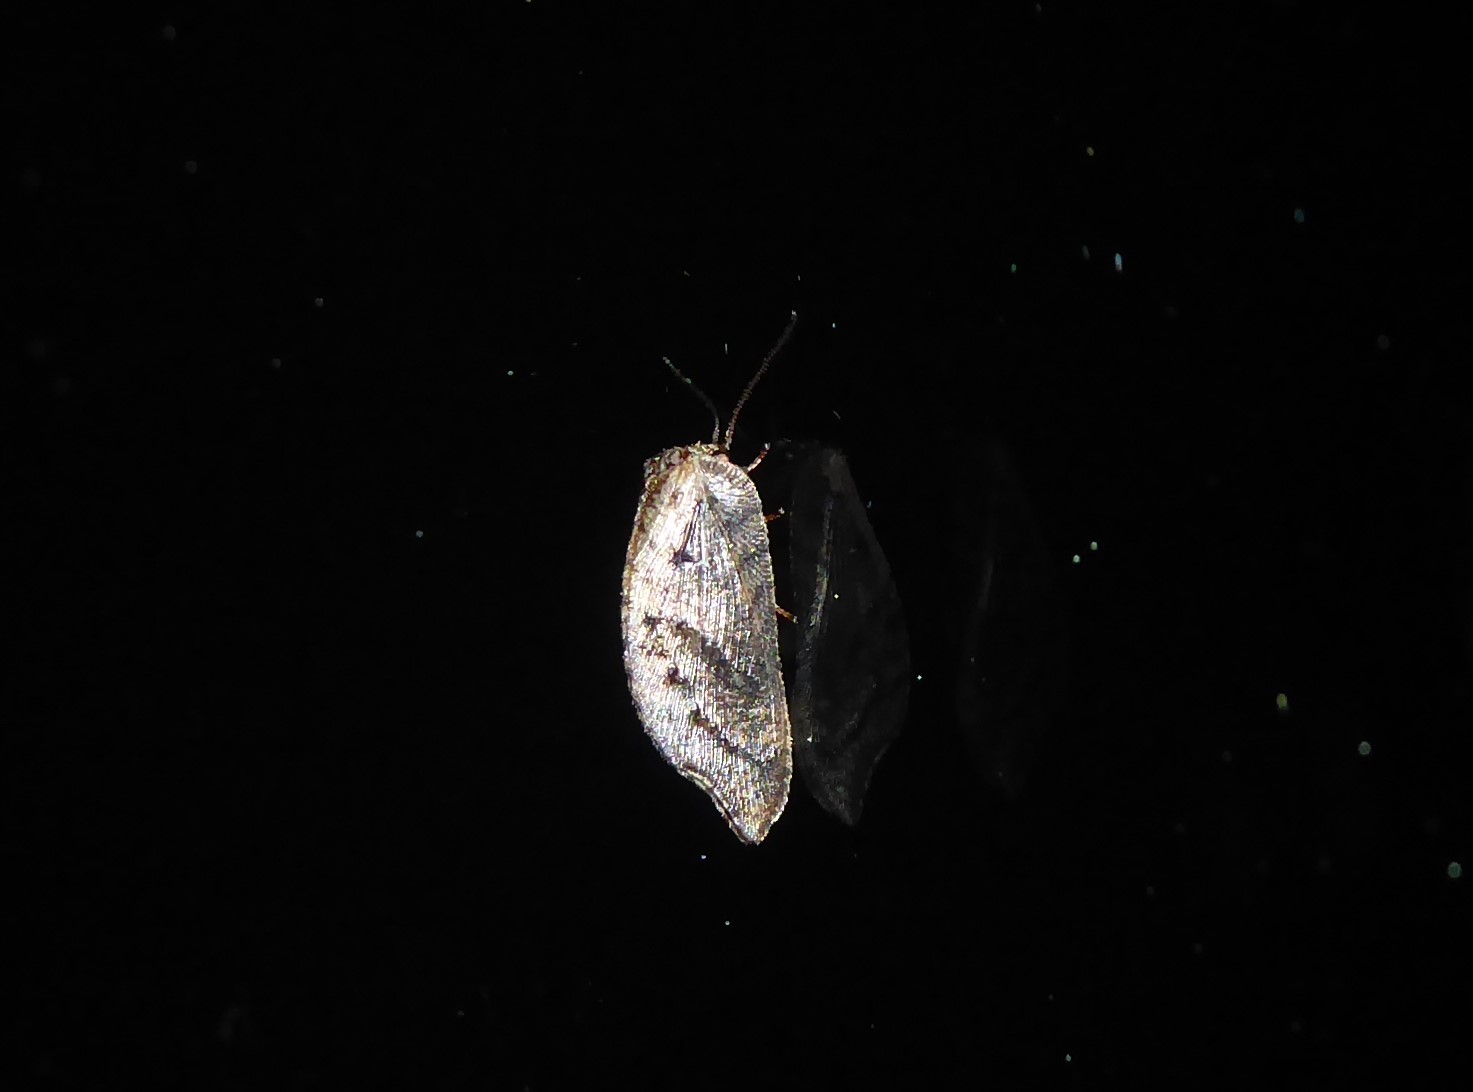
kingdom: Animalia
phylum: Arthropoda
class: Insecta
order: Neuroptera
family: Hemerobiidae
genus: Drepanacra
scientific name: Drepanacra binocula
